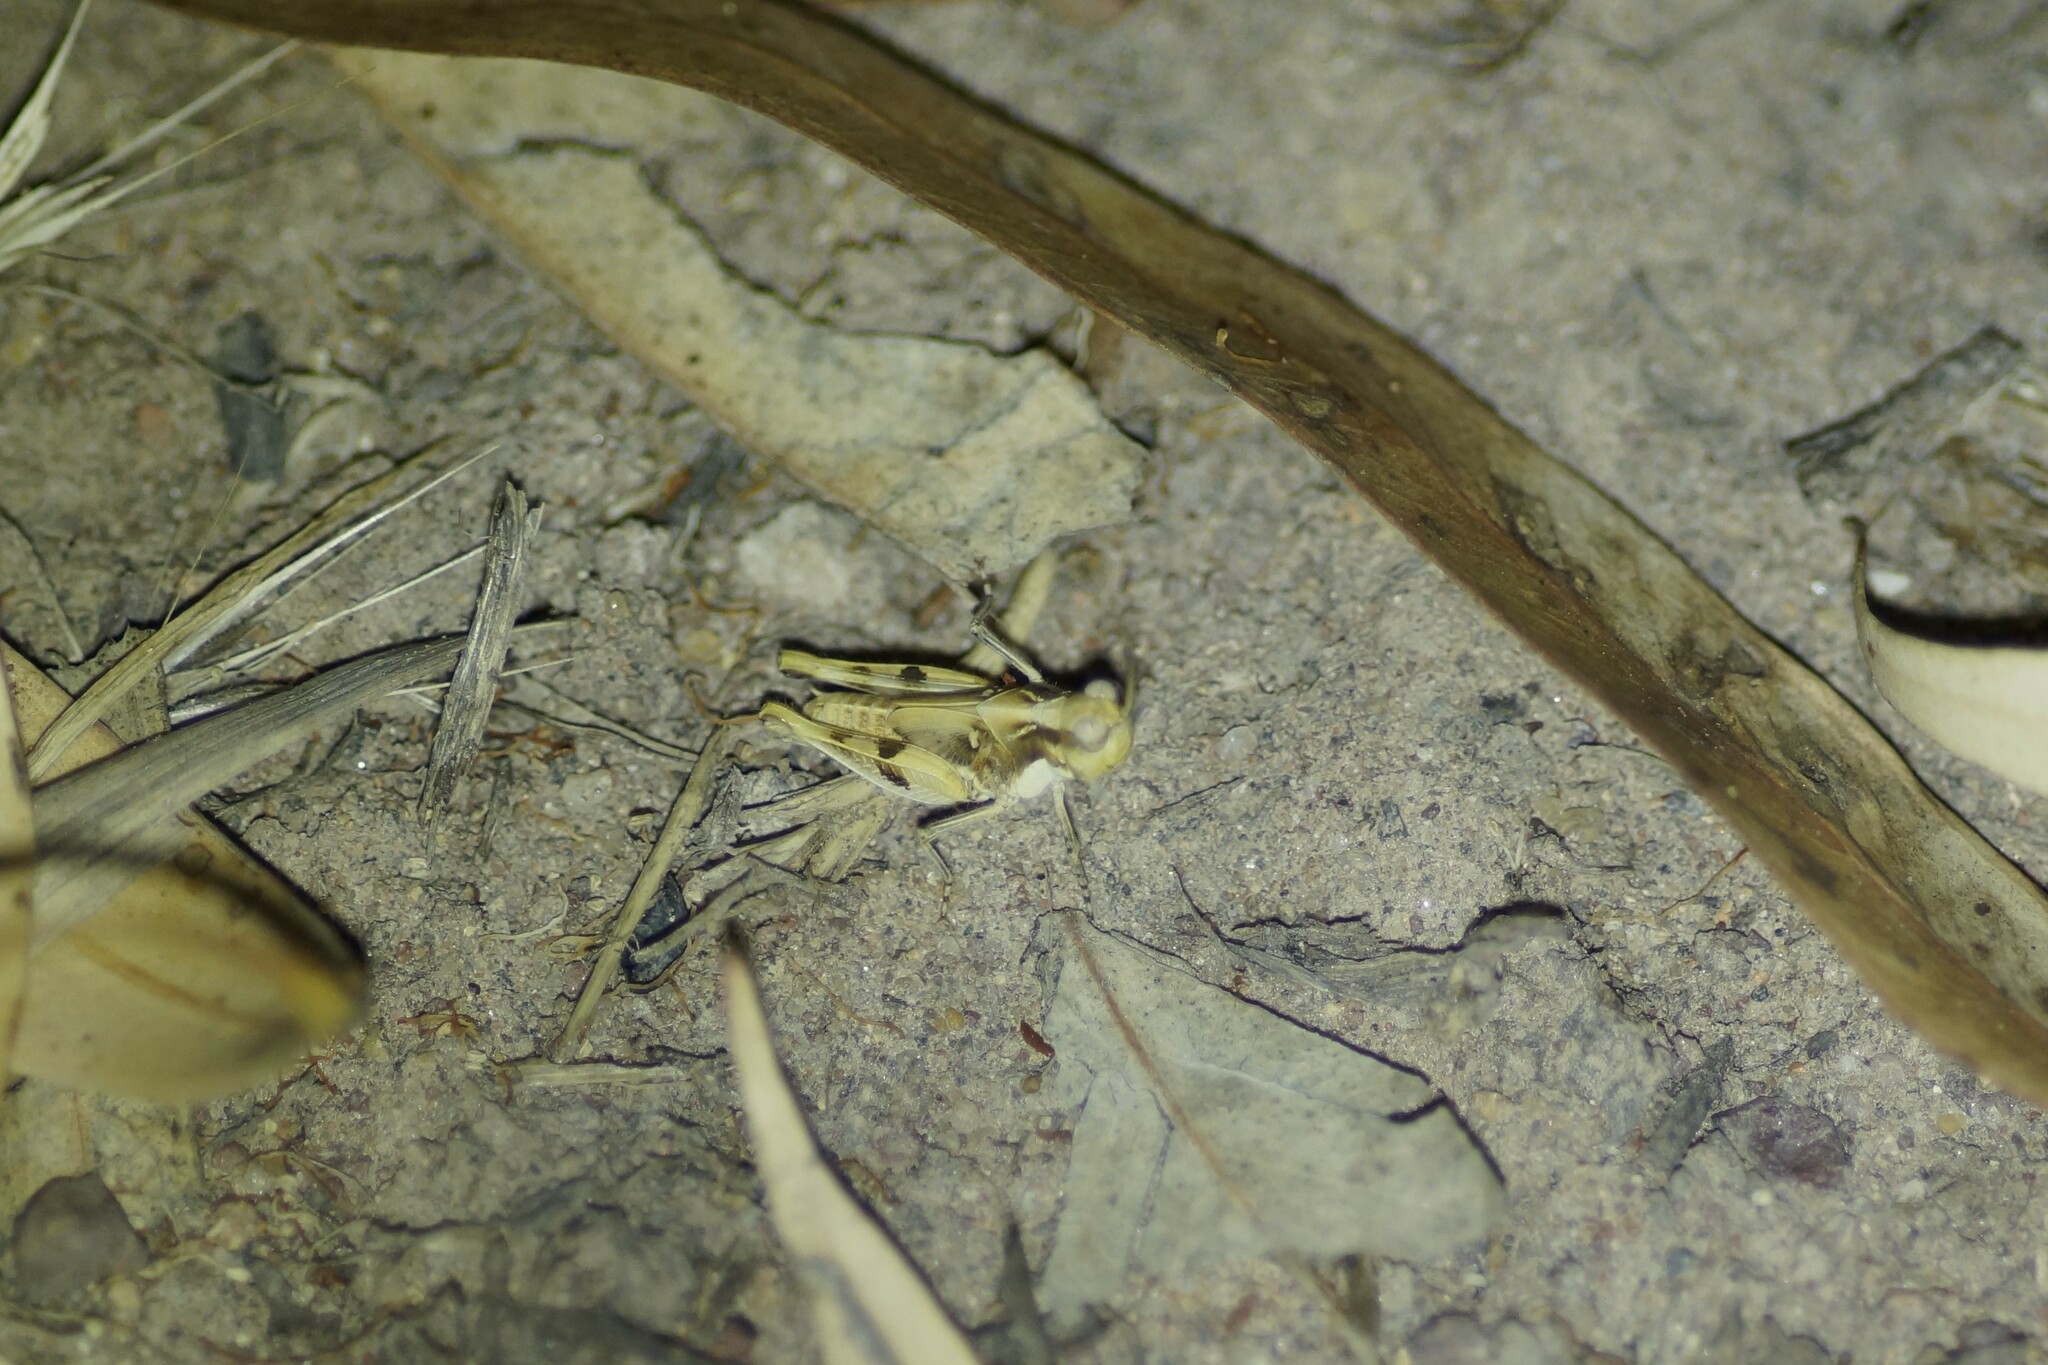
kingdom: Animalia
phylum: Arthropoda
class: Insecta
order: Orthoptera
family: Acrididae
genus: Pycnostictus
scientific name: Pycnostictus seriatus
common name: Common bandwing
